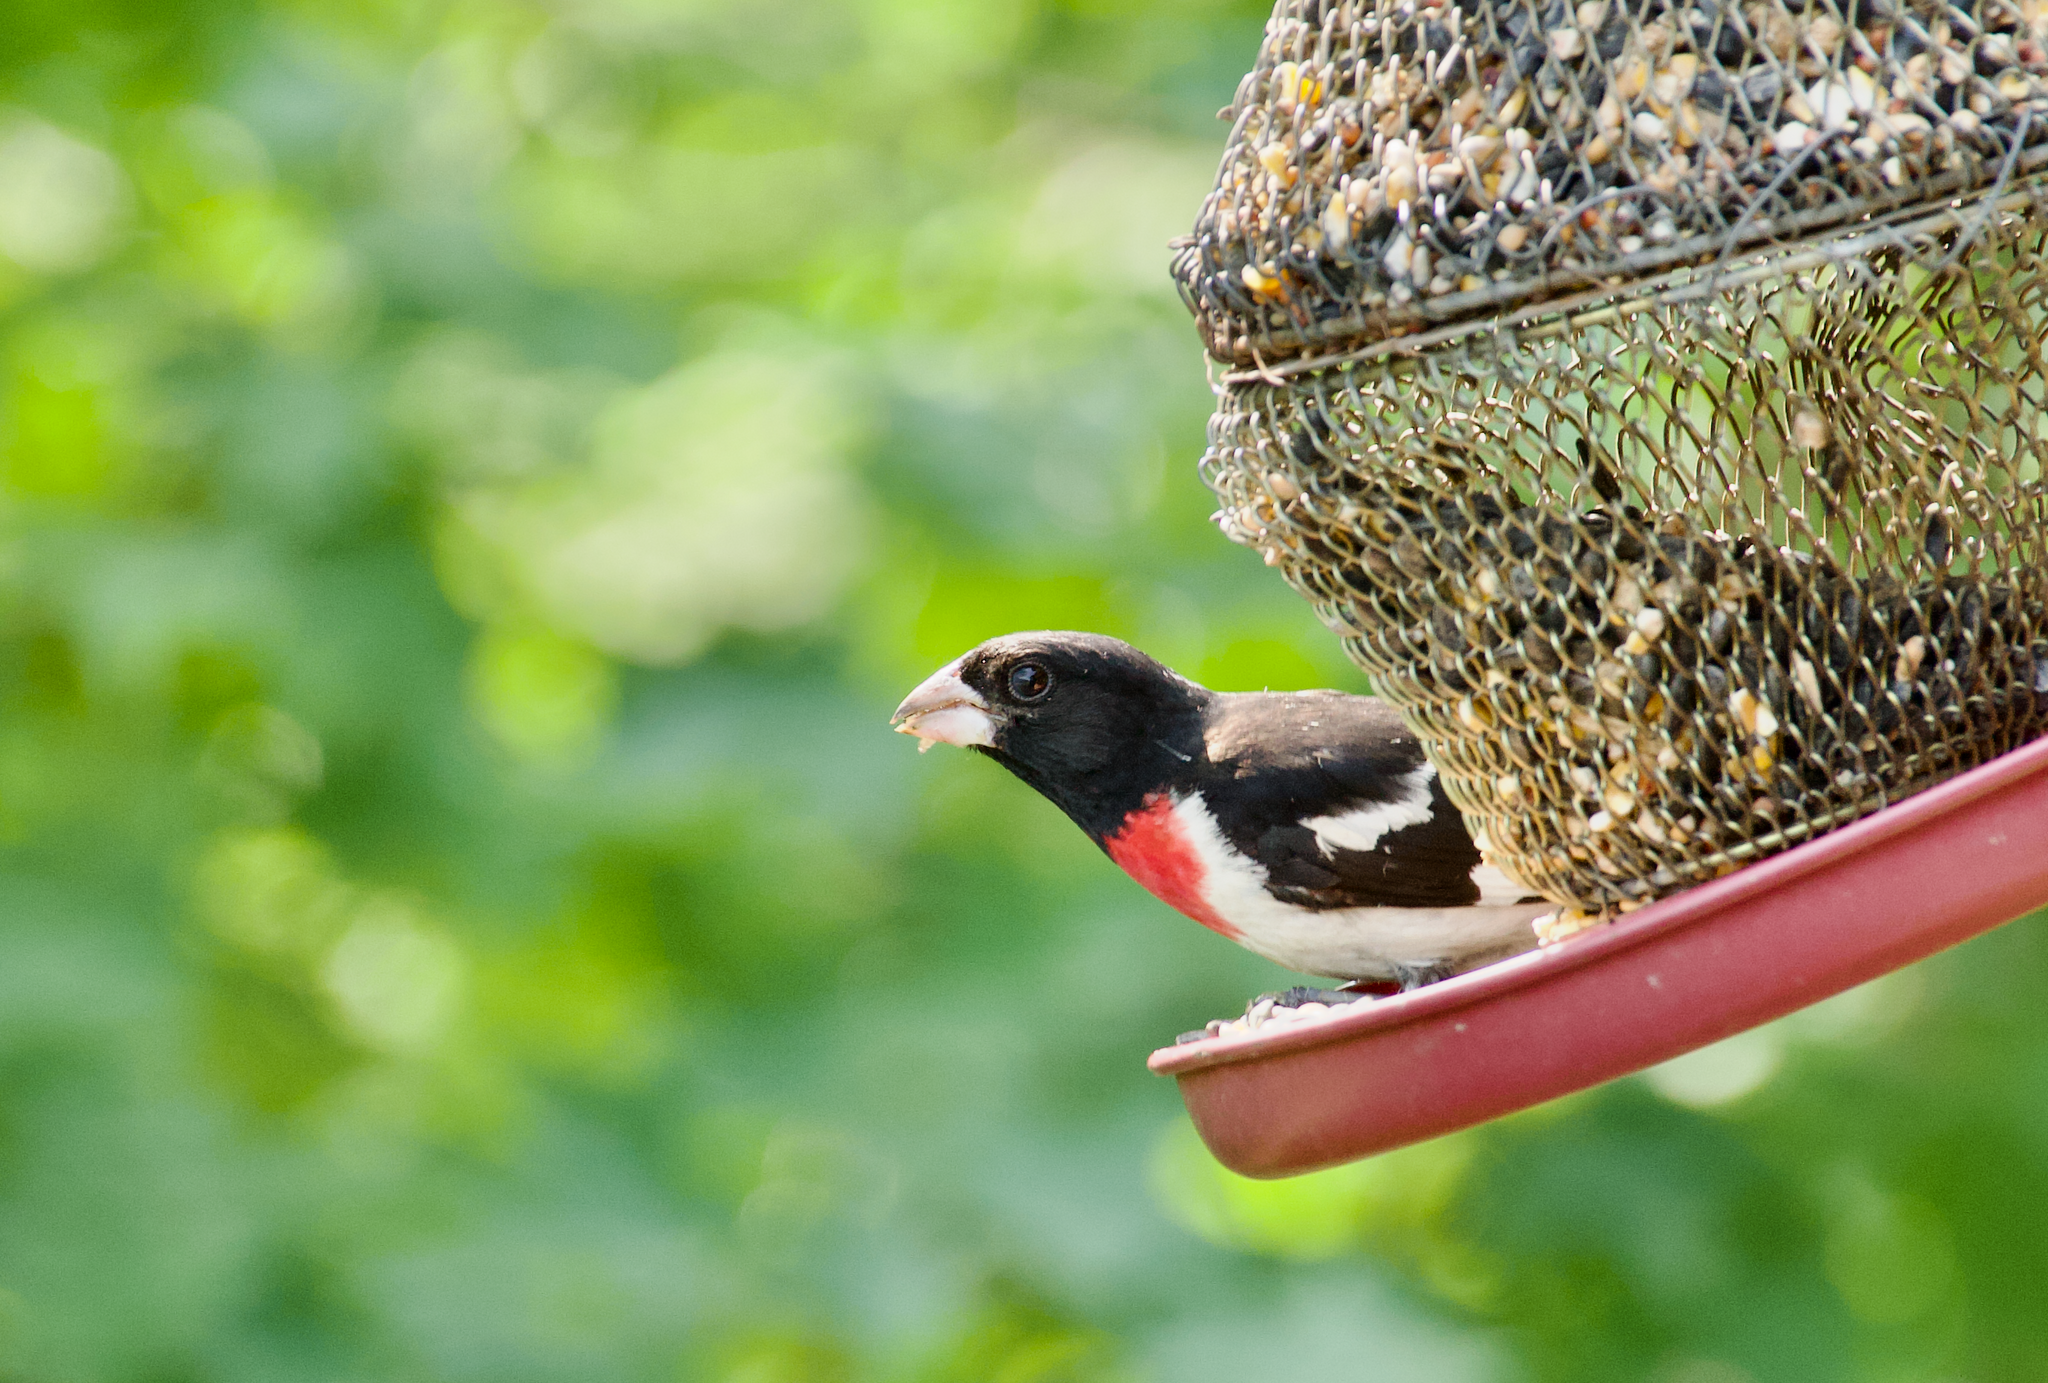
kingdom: Animalia
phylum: Chordata
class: Aves
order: Passeriformes
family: Cardinalidae
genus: Pheucticus
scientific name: Pheucticus ludovicianus
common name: Rose-breasted grosbeak
